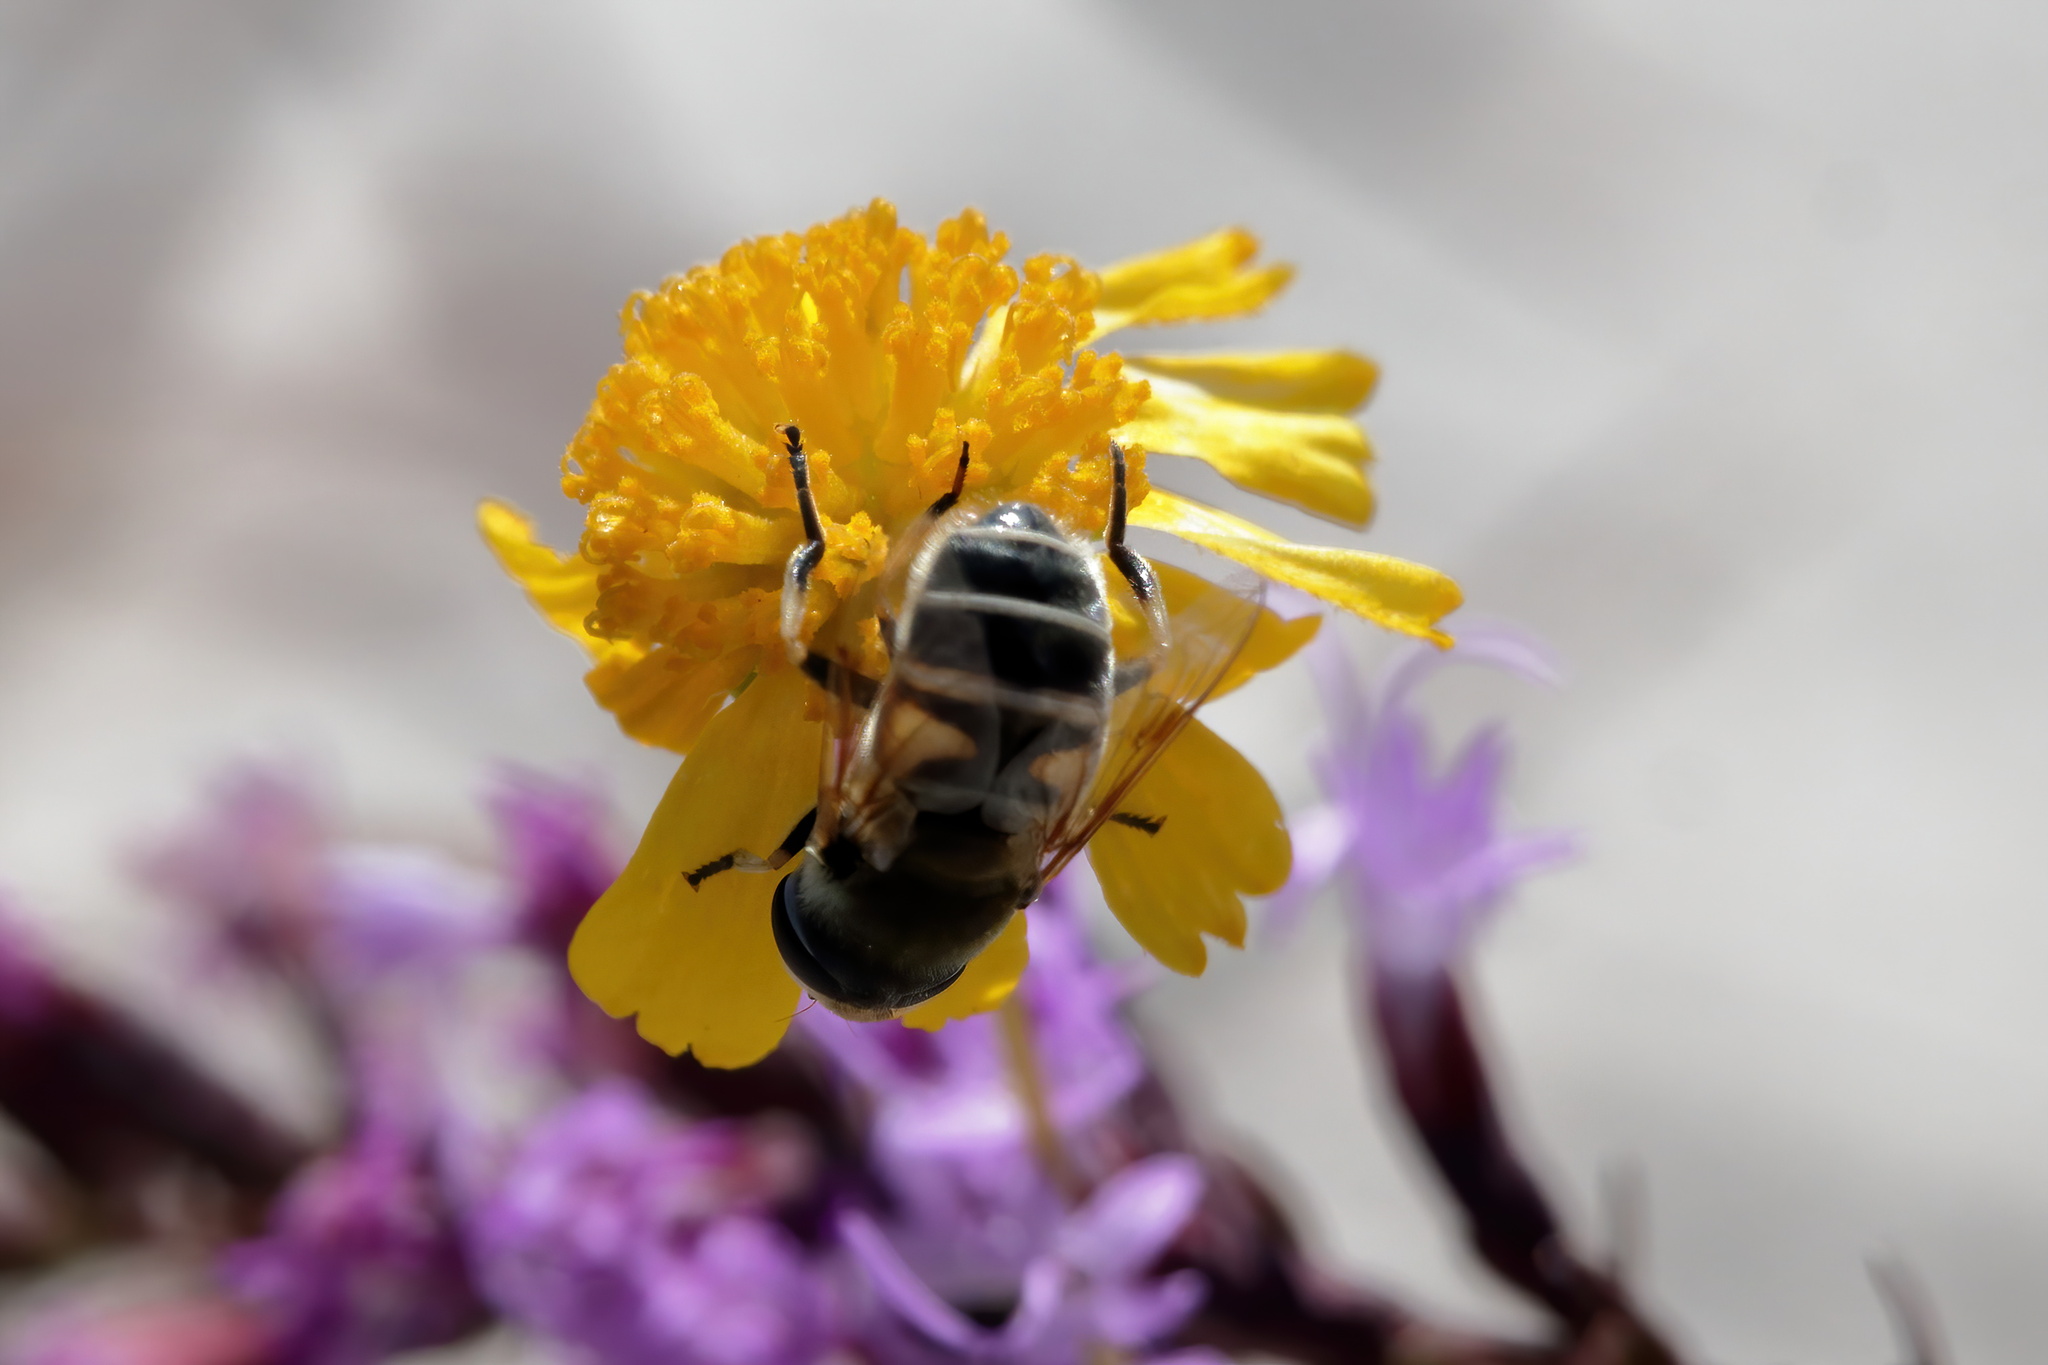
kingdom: Animalia
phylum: Arthropoda
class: Insecta
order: Diptera
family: Syrphidae
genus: Eristalis
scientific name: Eristalis stipator
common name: Yellow-shouldered drone fly
